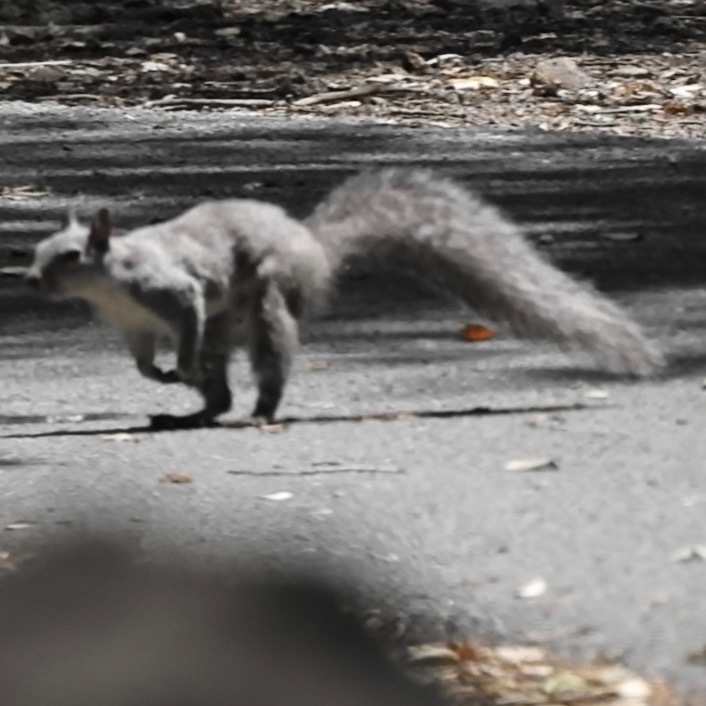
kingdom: Animalia
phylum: Chordata
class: Mammalia
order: Rodentia
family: Sciuridae
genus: Sciurus
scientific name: Sciurus griseus
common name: Western gray squirrel
